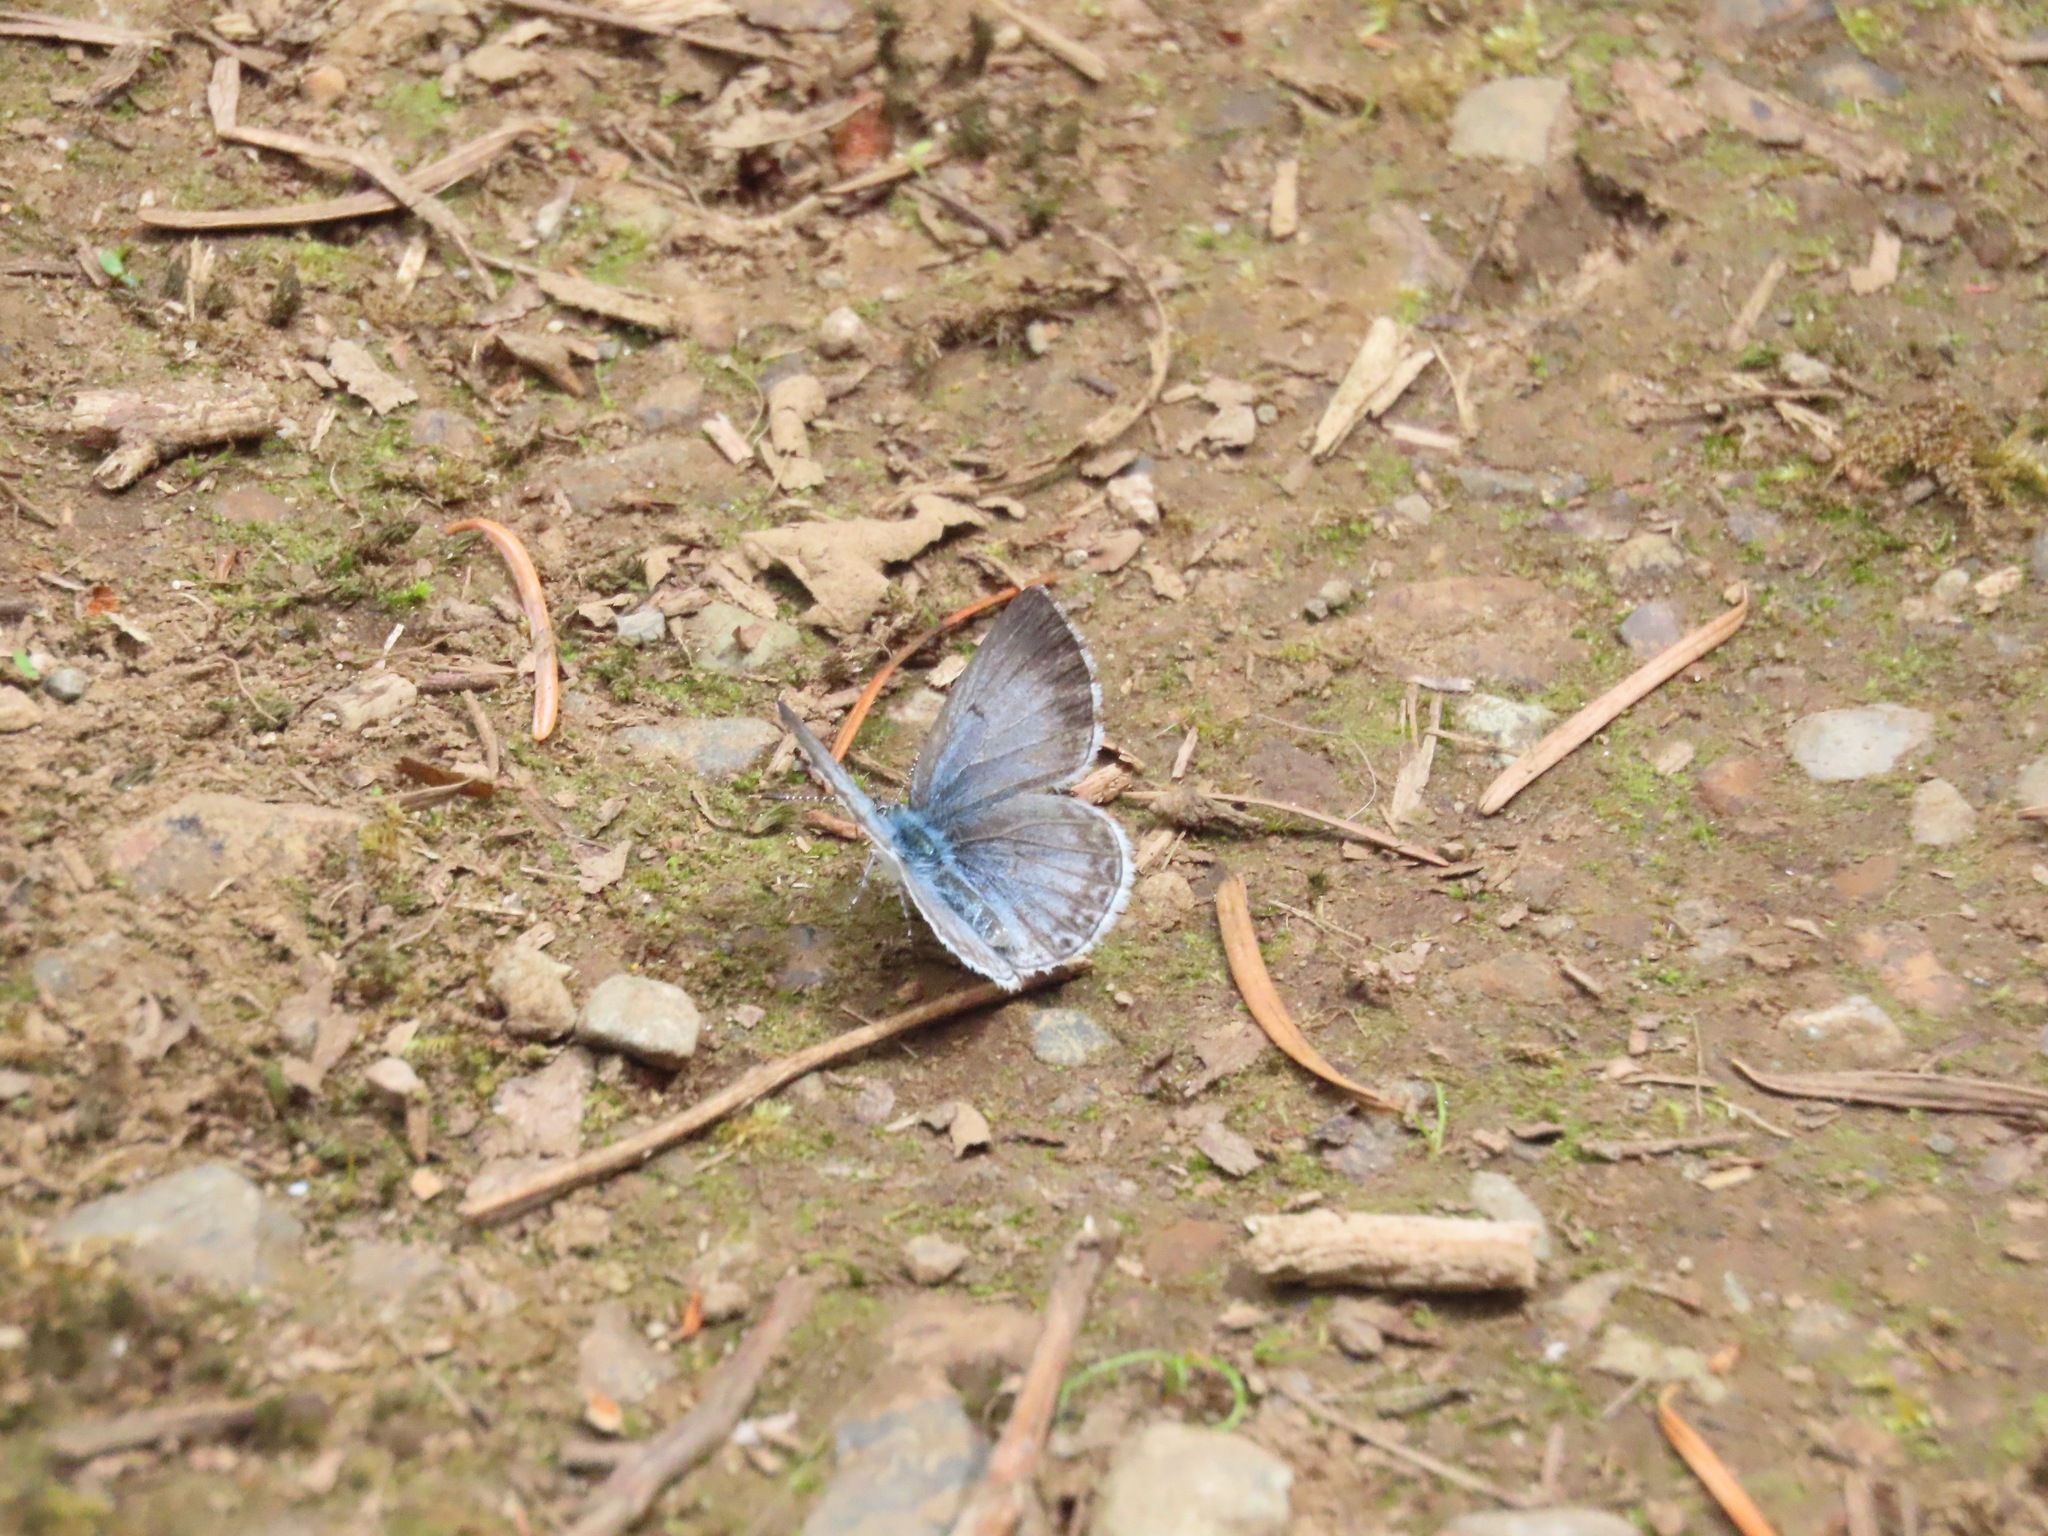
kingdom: Animalia
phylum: Arthropoda
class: Insecta
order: Lepidoptera
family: Lycaenidae
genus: Celastrina
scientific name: Celastrina ladon
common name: Spring azure
